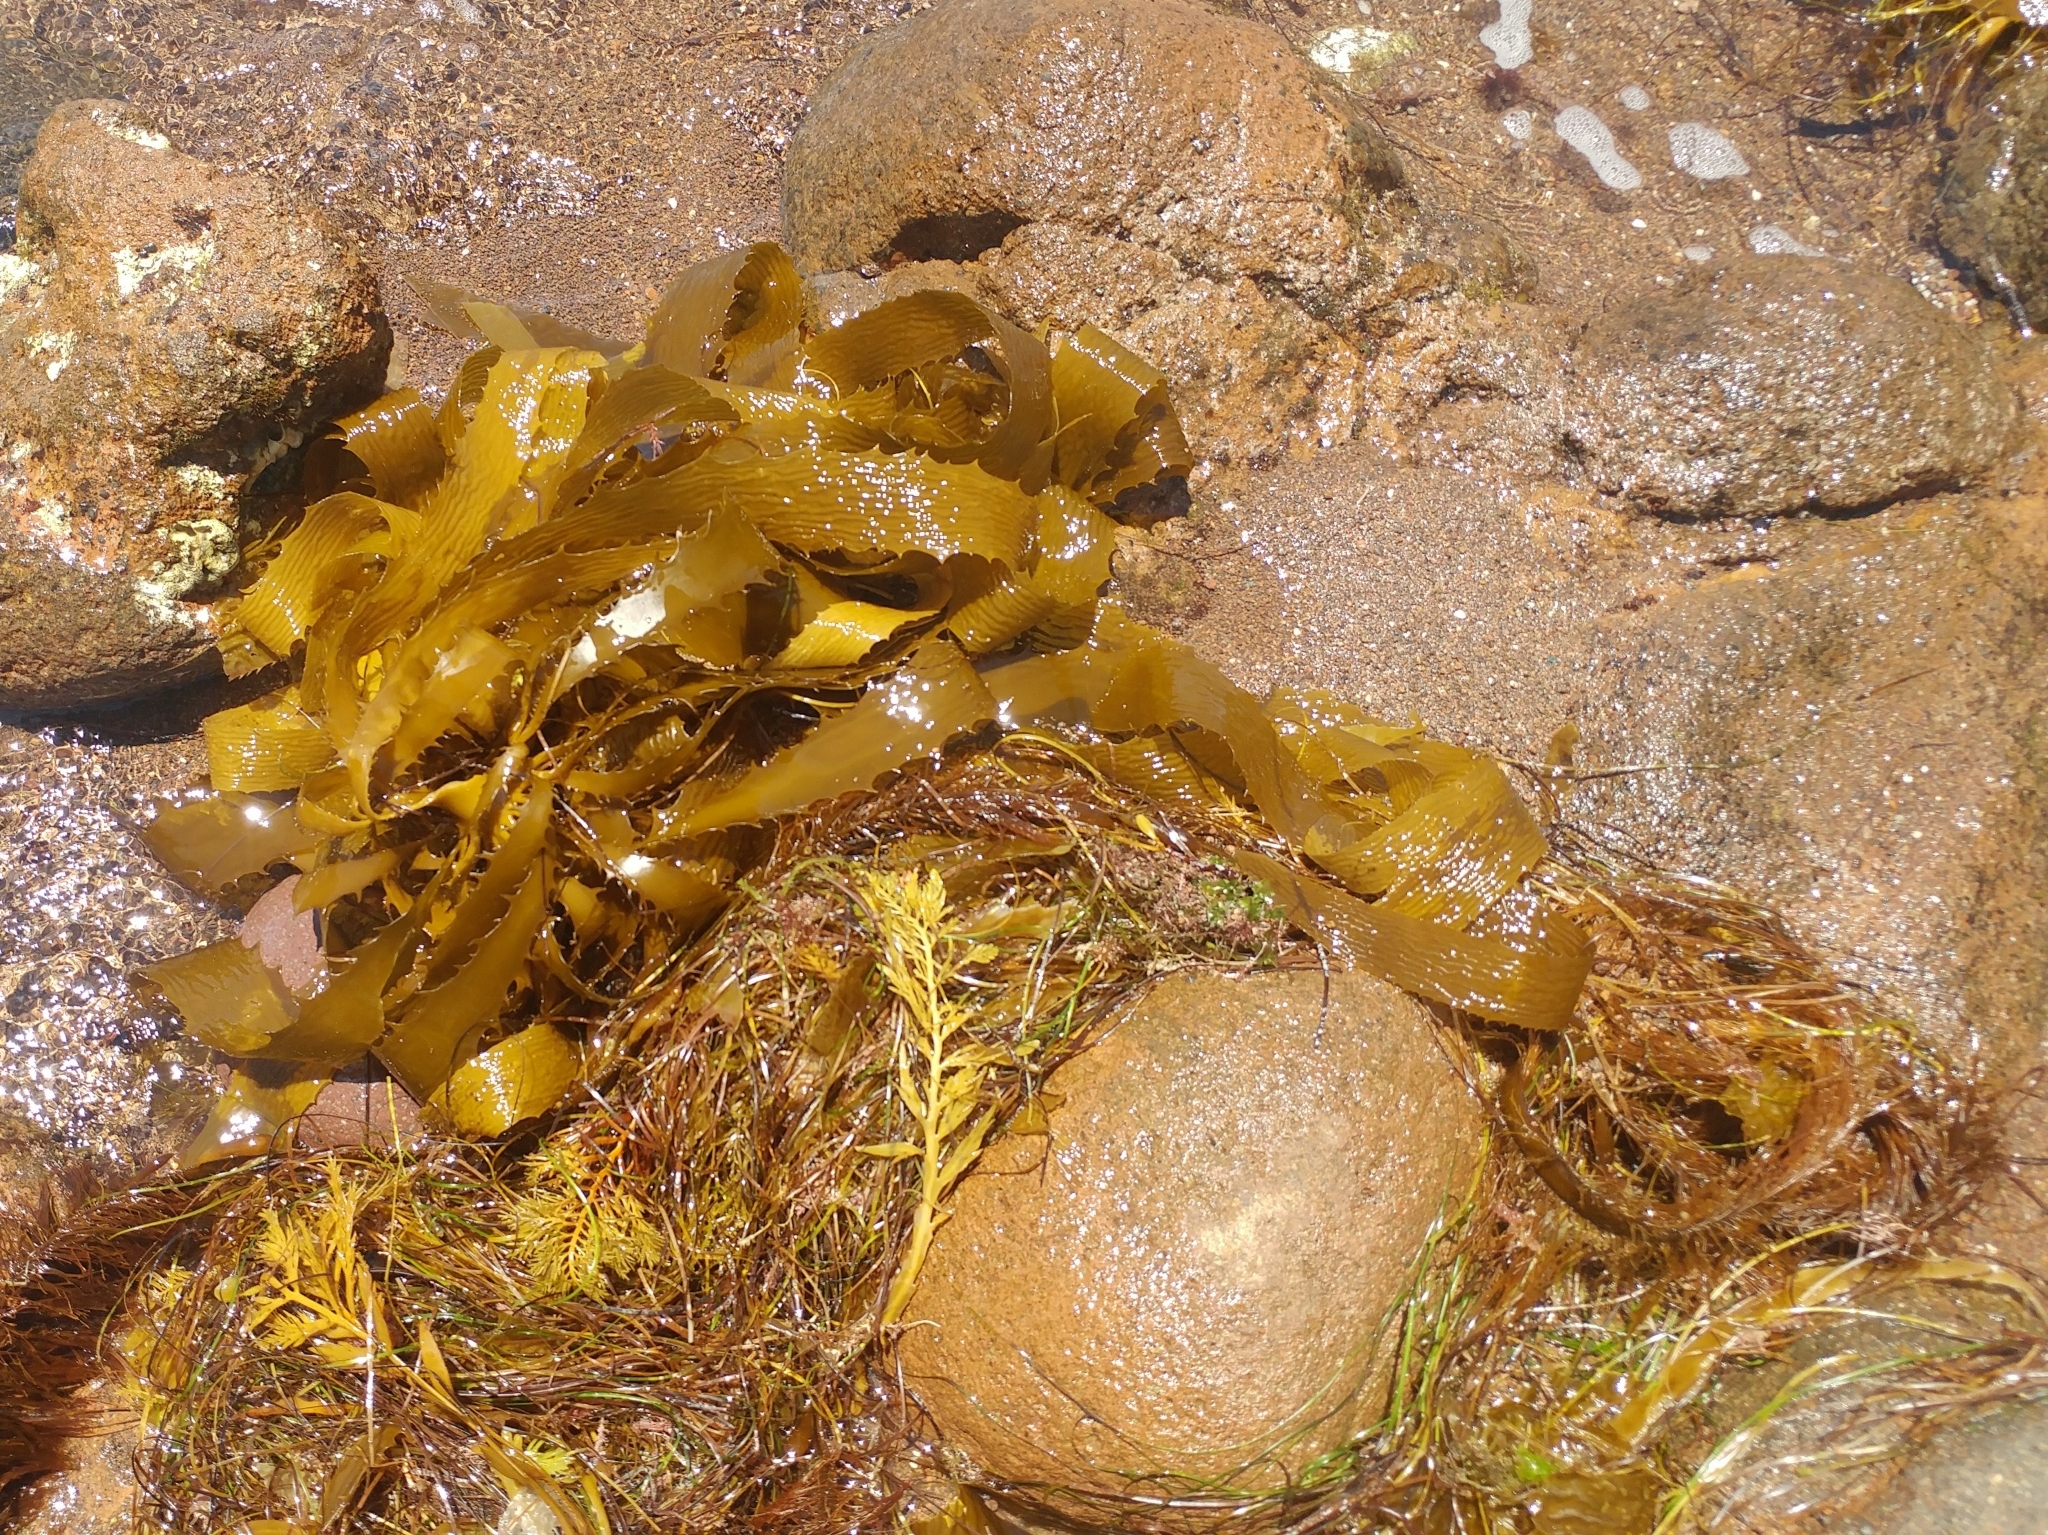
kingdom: Chromista
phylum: Ochrophyta
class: Phaeophyceae
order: Laminariales
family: Lessoniaceae
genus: Eisenia
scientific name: Eisenia arborea
